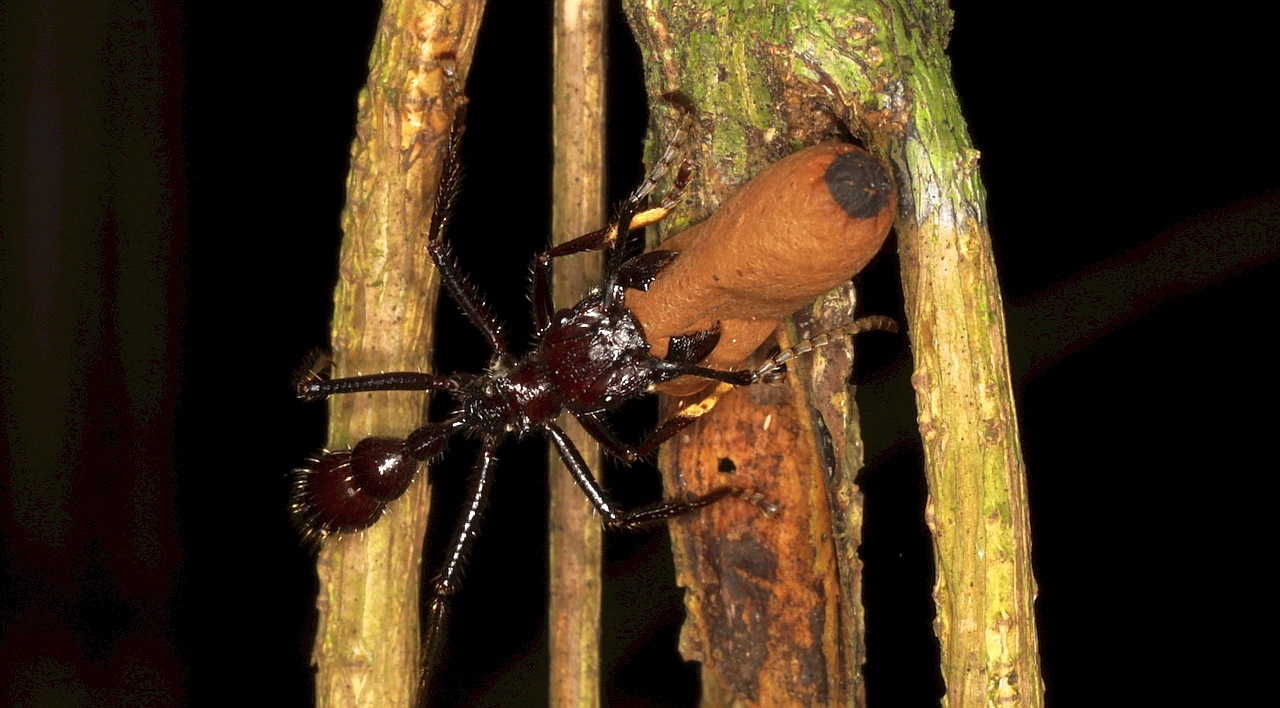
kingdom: Animalia
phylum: Arthropoda
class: Insecta
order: Hymenoptera
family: Formicidae
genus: Paraponera
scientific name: Paraponera clavata
